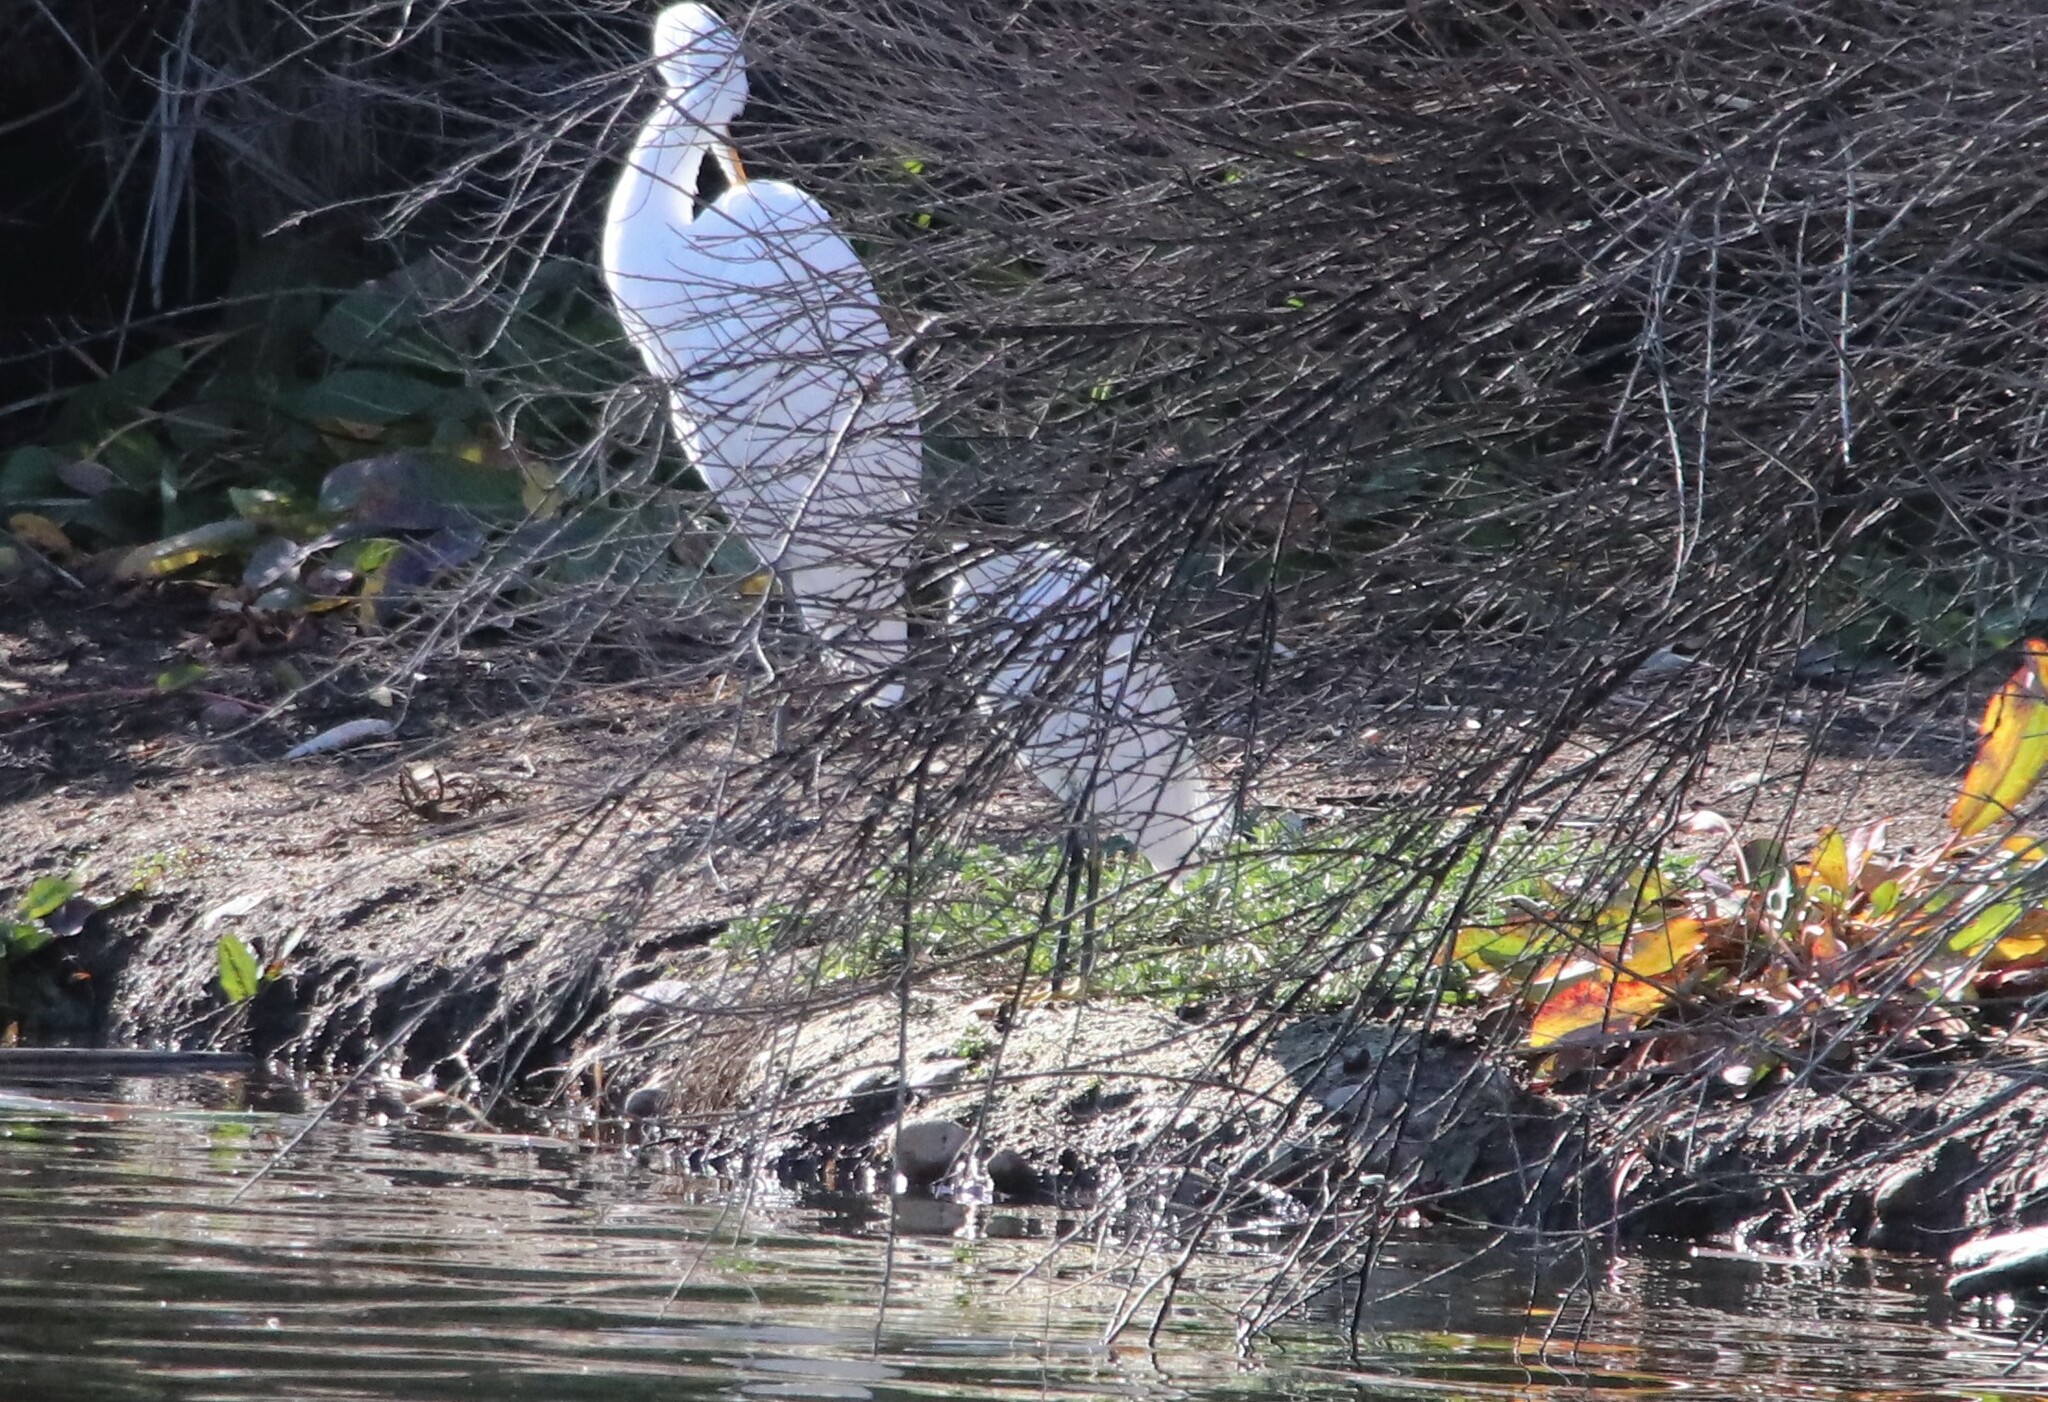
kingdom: Animalia
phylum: Chordata
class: Aves
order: Pelecaniformes
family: Ardeidae
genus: Egretta
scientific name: Egretta thula
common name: Snowy egret
